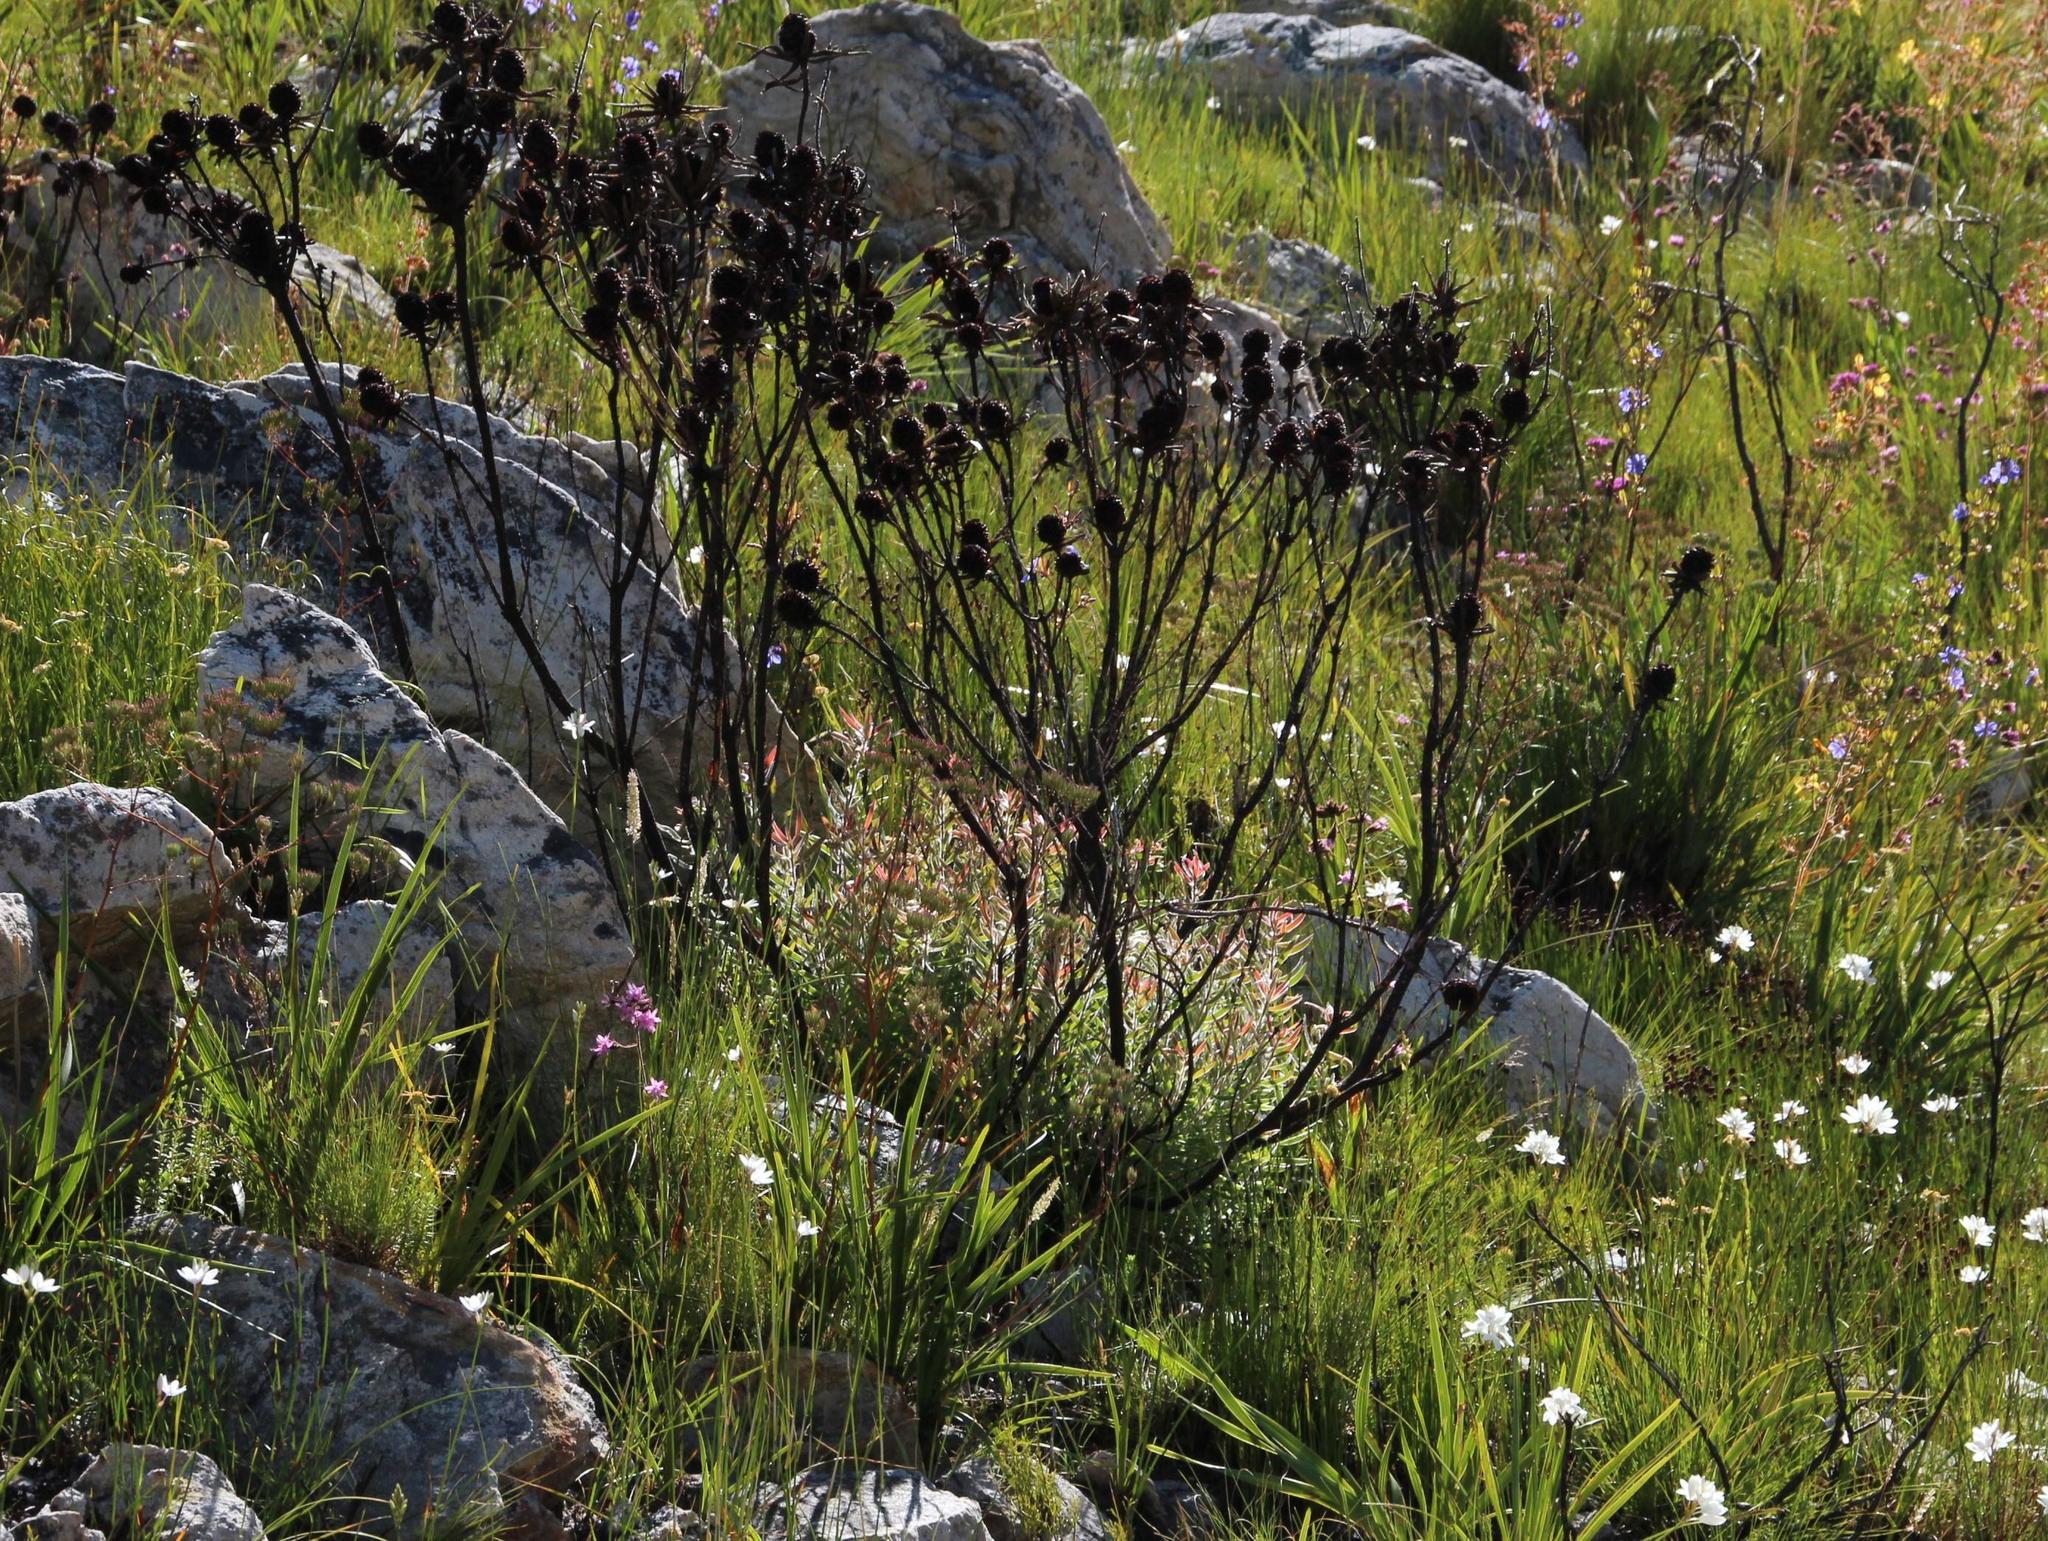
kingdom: Plantae
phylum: Tracheophyta
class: Magnoliopsida
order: Proteales
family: Proteaceae
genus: Leucadendron
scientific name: Leucadendron spissifolium
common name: Spear-leaf conebush
